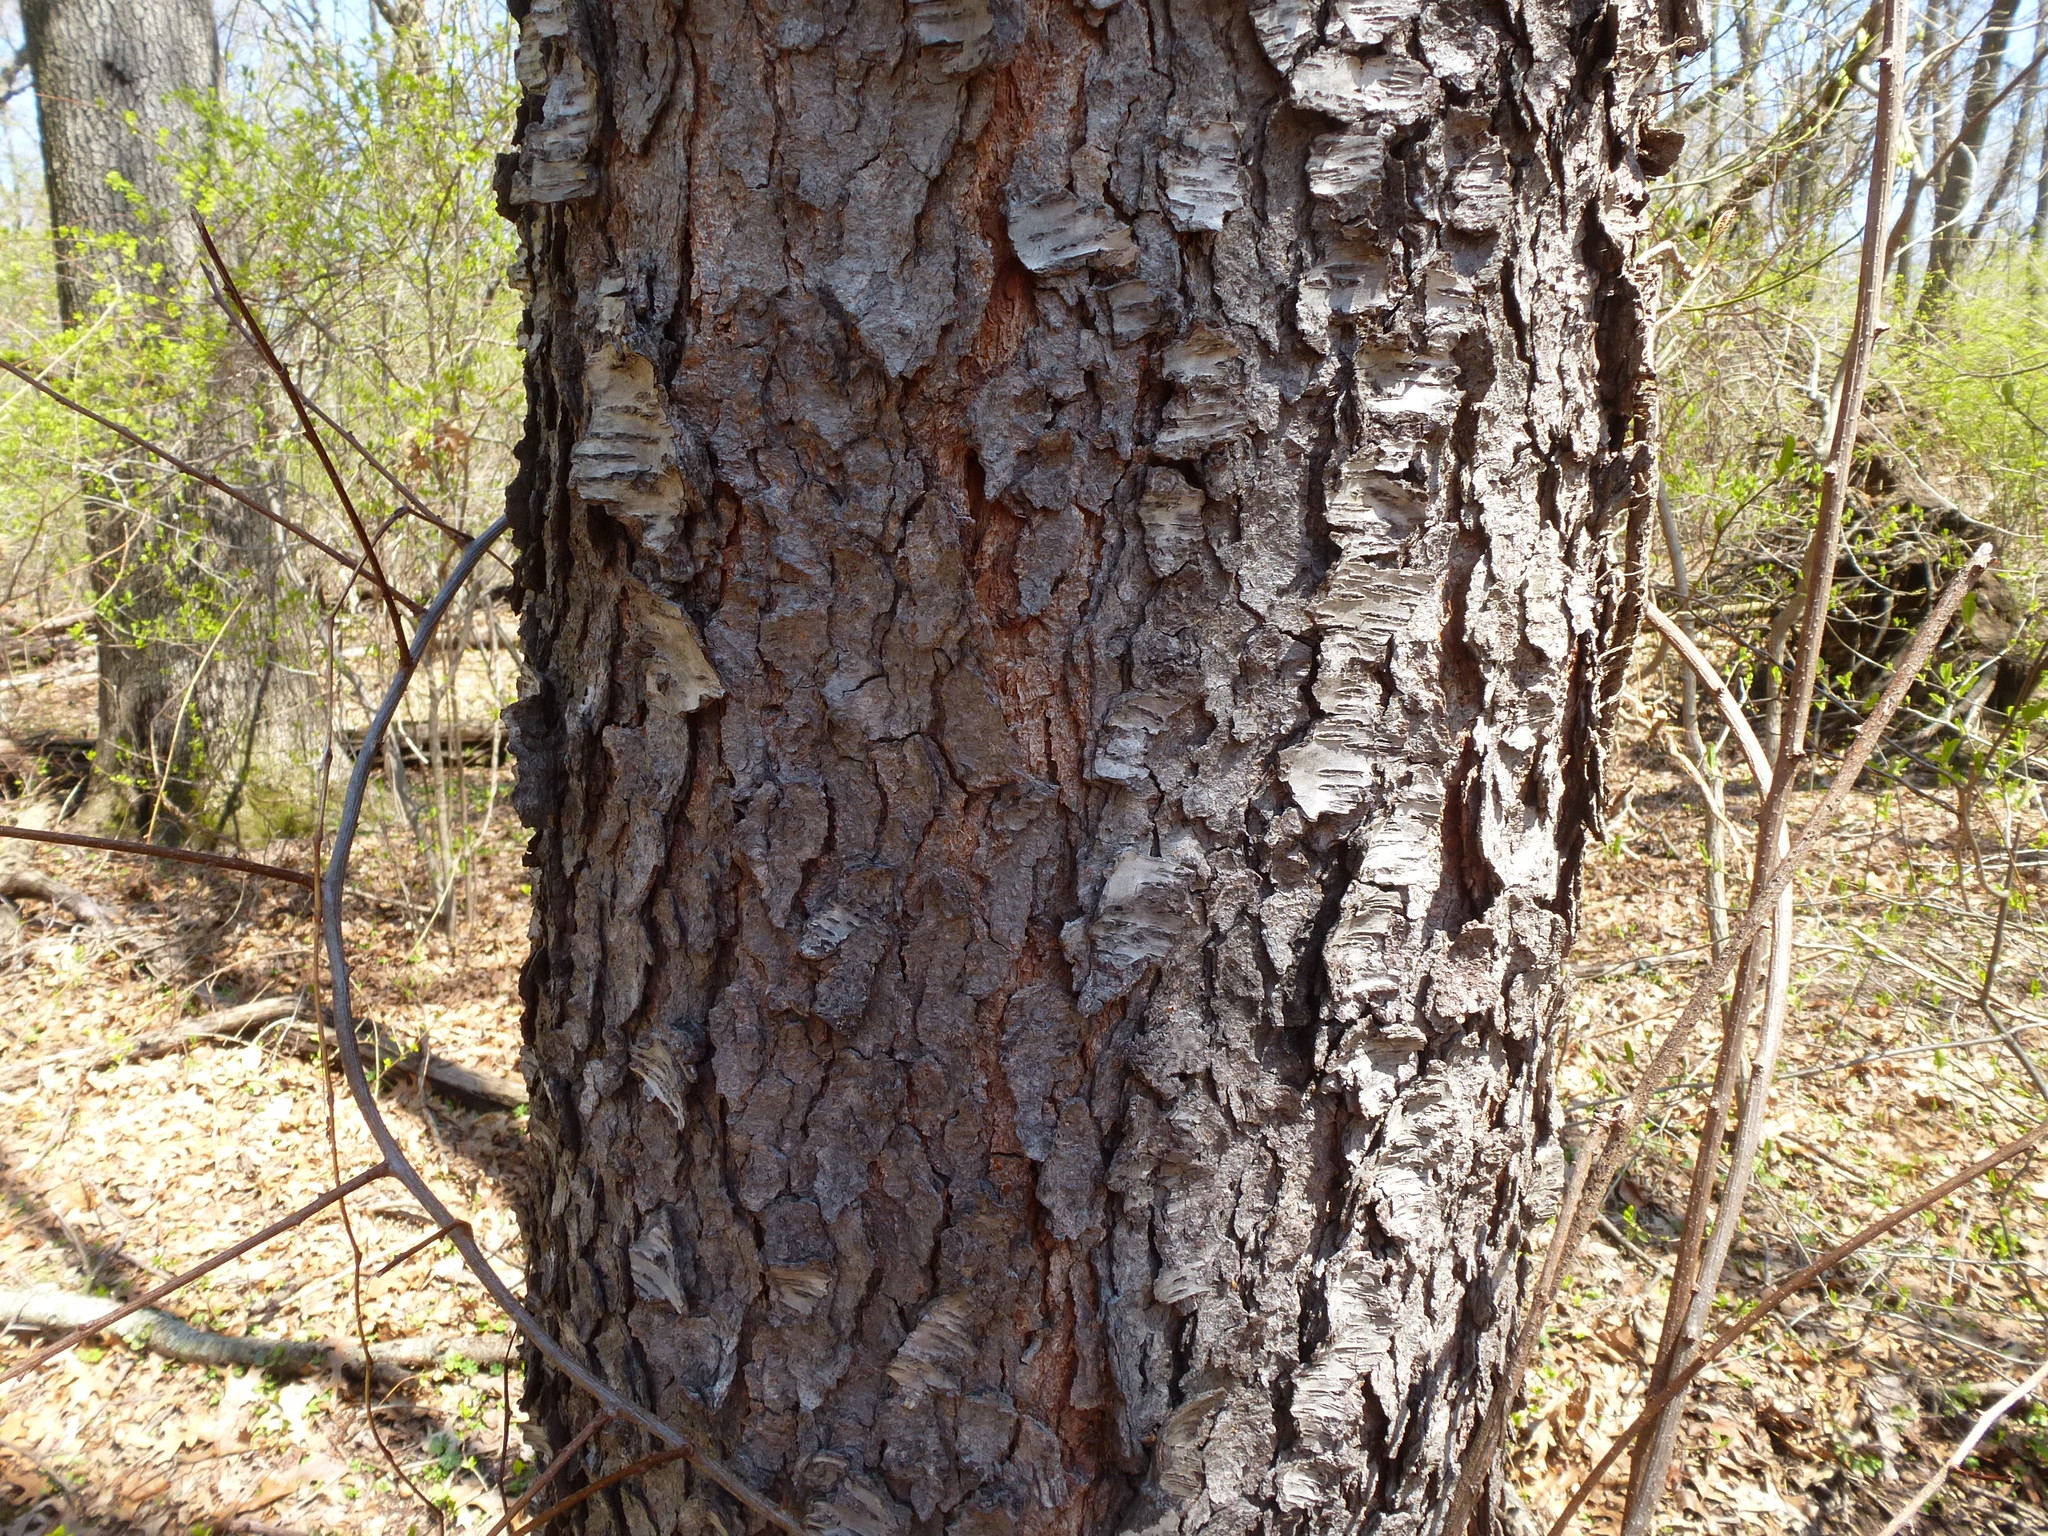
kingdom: Plantae
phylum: Tracheophyta
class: Magnoliopsida
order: Rosales
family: Rosaceae
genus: Prunus
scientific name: Prunus serotina
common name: Black cherry
